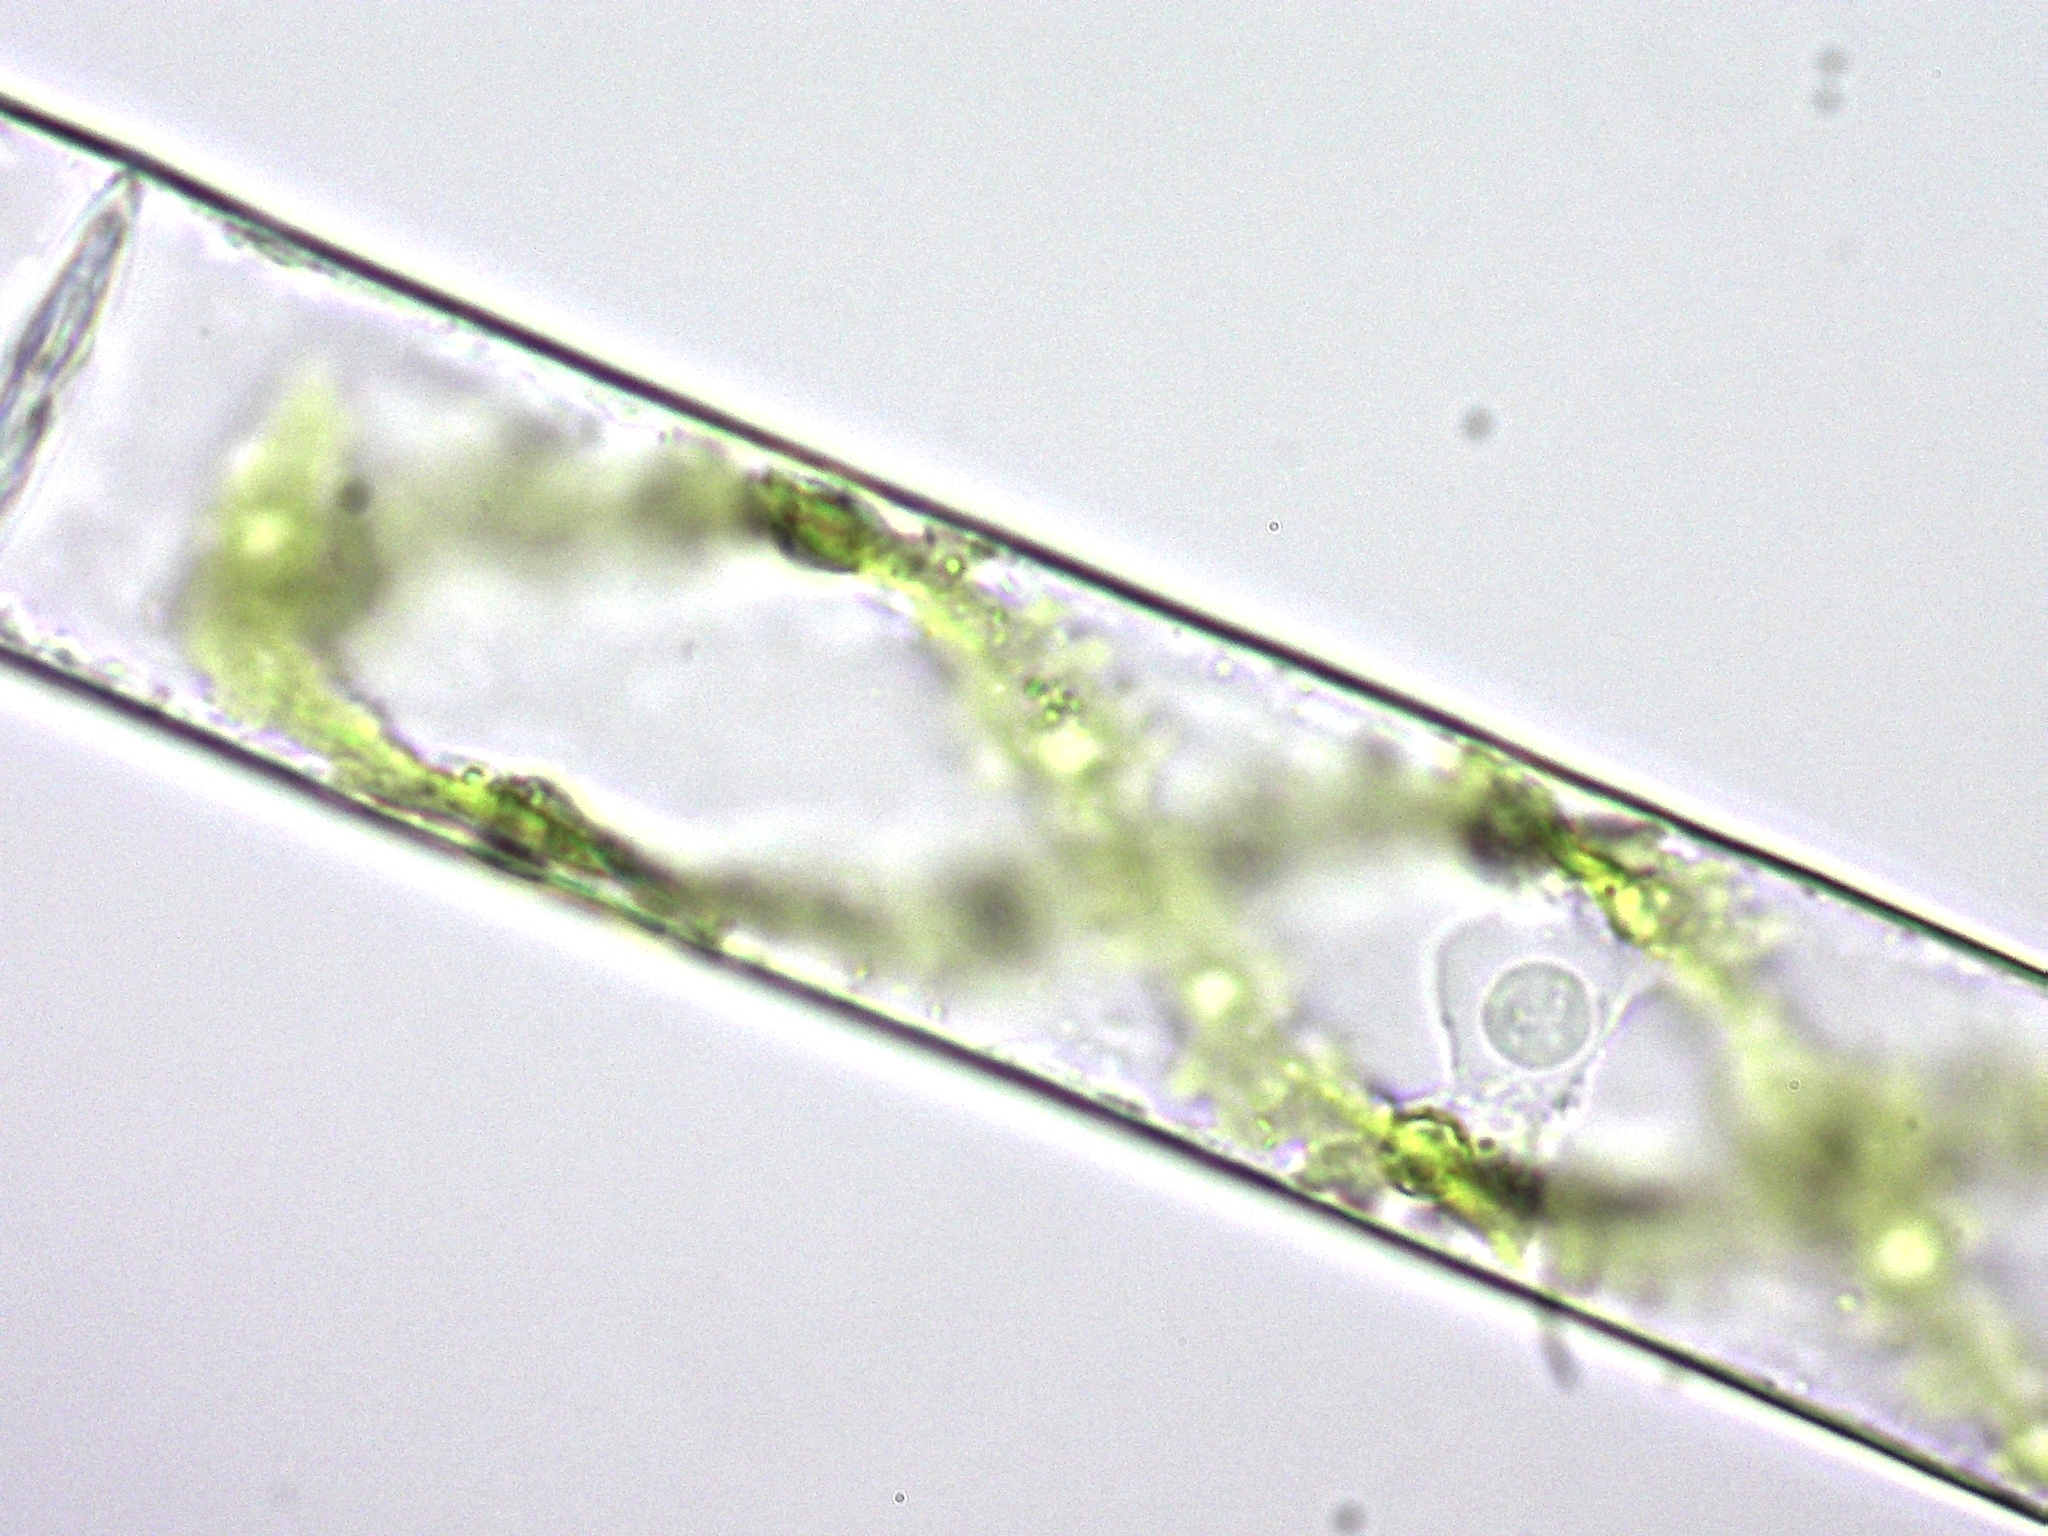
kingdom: Plantae
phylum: Charophyta
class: Zygnematophyceae
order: Zygnematales
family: Zygnemataceae
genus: Spirogyra
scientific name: Spirogyra
